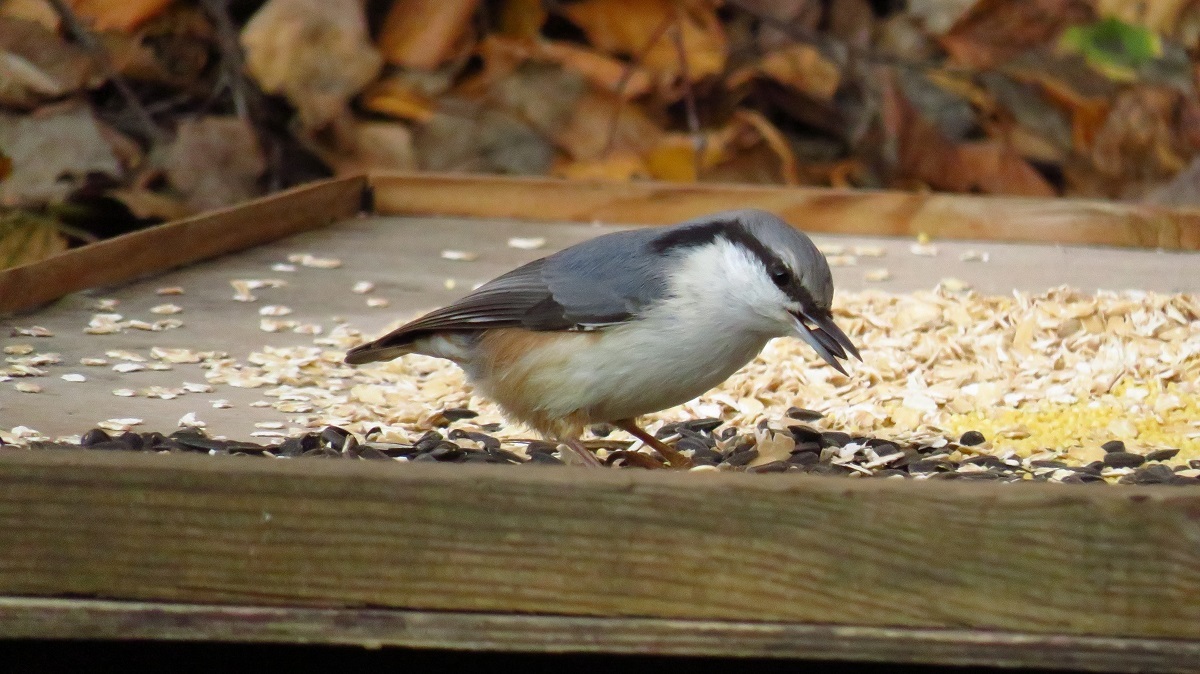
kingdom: Animalia
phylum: Chordata
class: Aves
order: Passeriformes
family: Sittidae
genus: Sitta
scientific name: Sitta europaea
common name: Eurasian nuthatch
